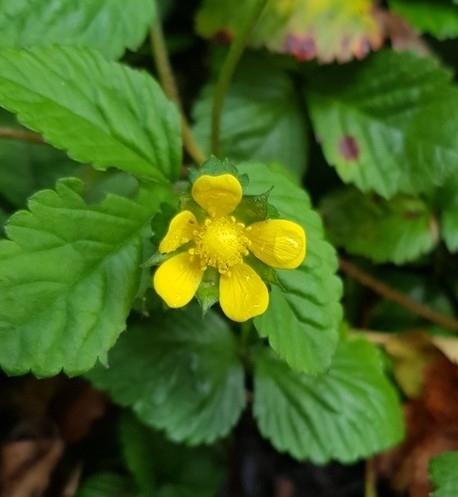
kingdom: Plantae
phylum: Tracheophyta
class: Magnoliopsida
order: Rosales
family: Rosaceae
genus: Potentilla
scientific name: Potentilla indica
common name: Yellow-flowered strawberry
